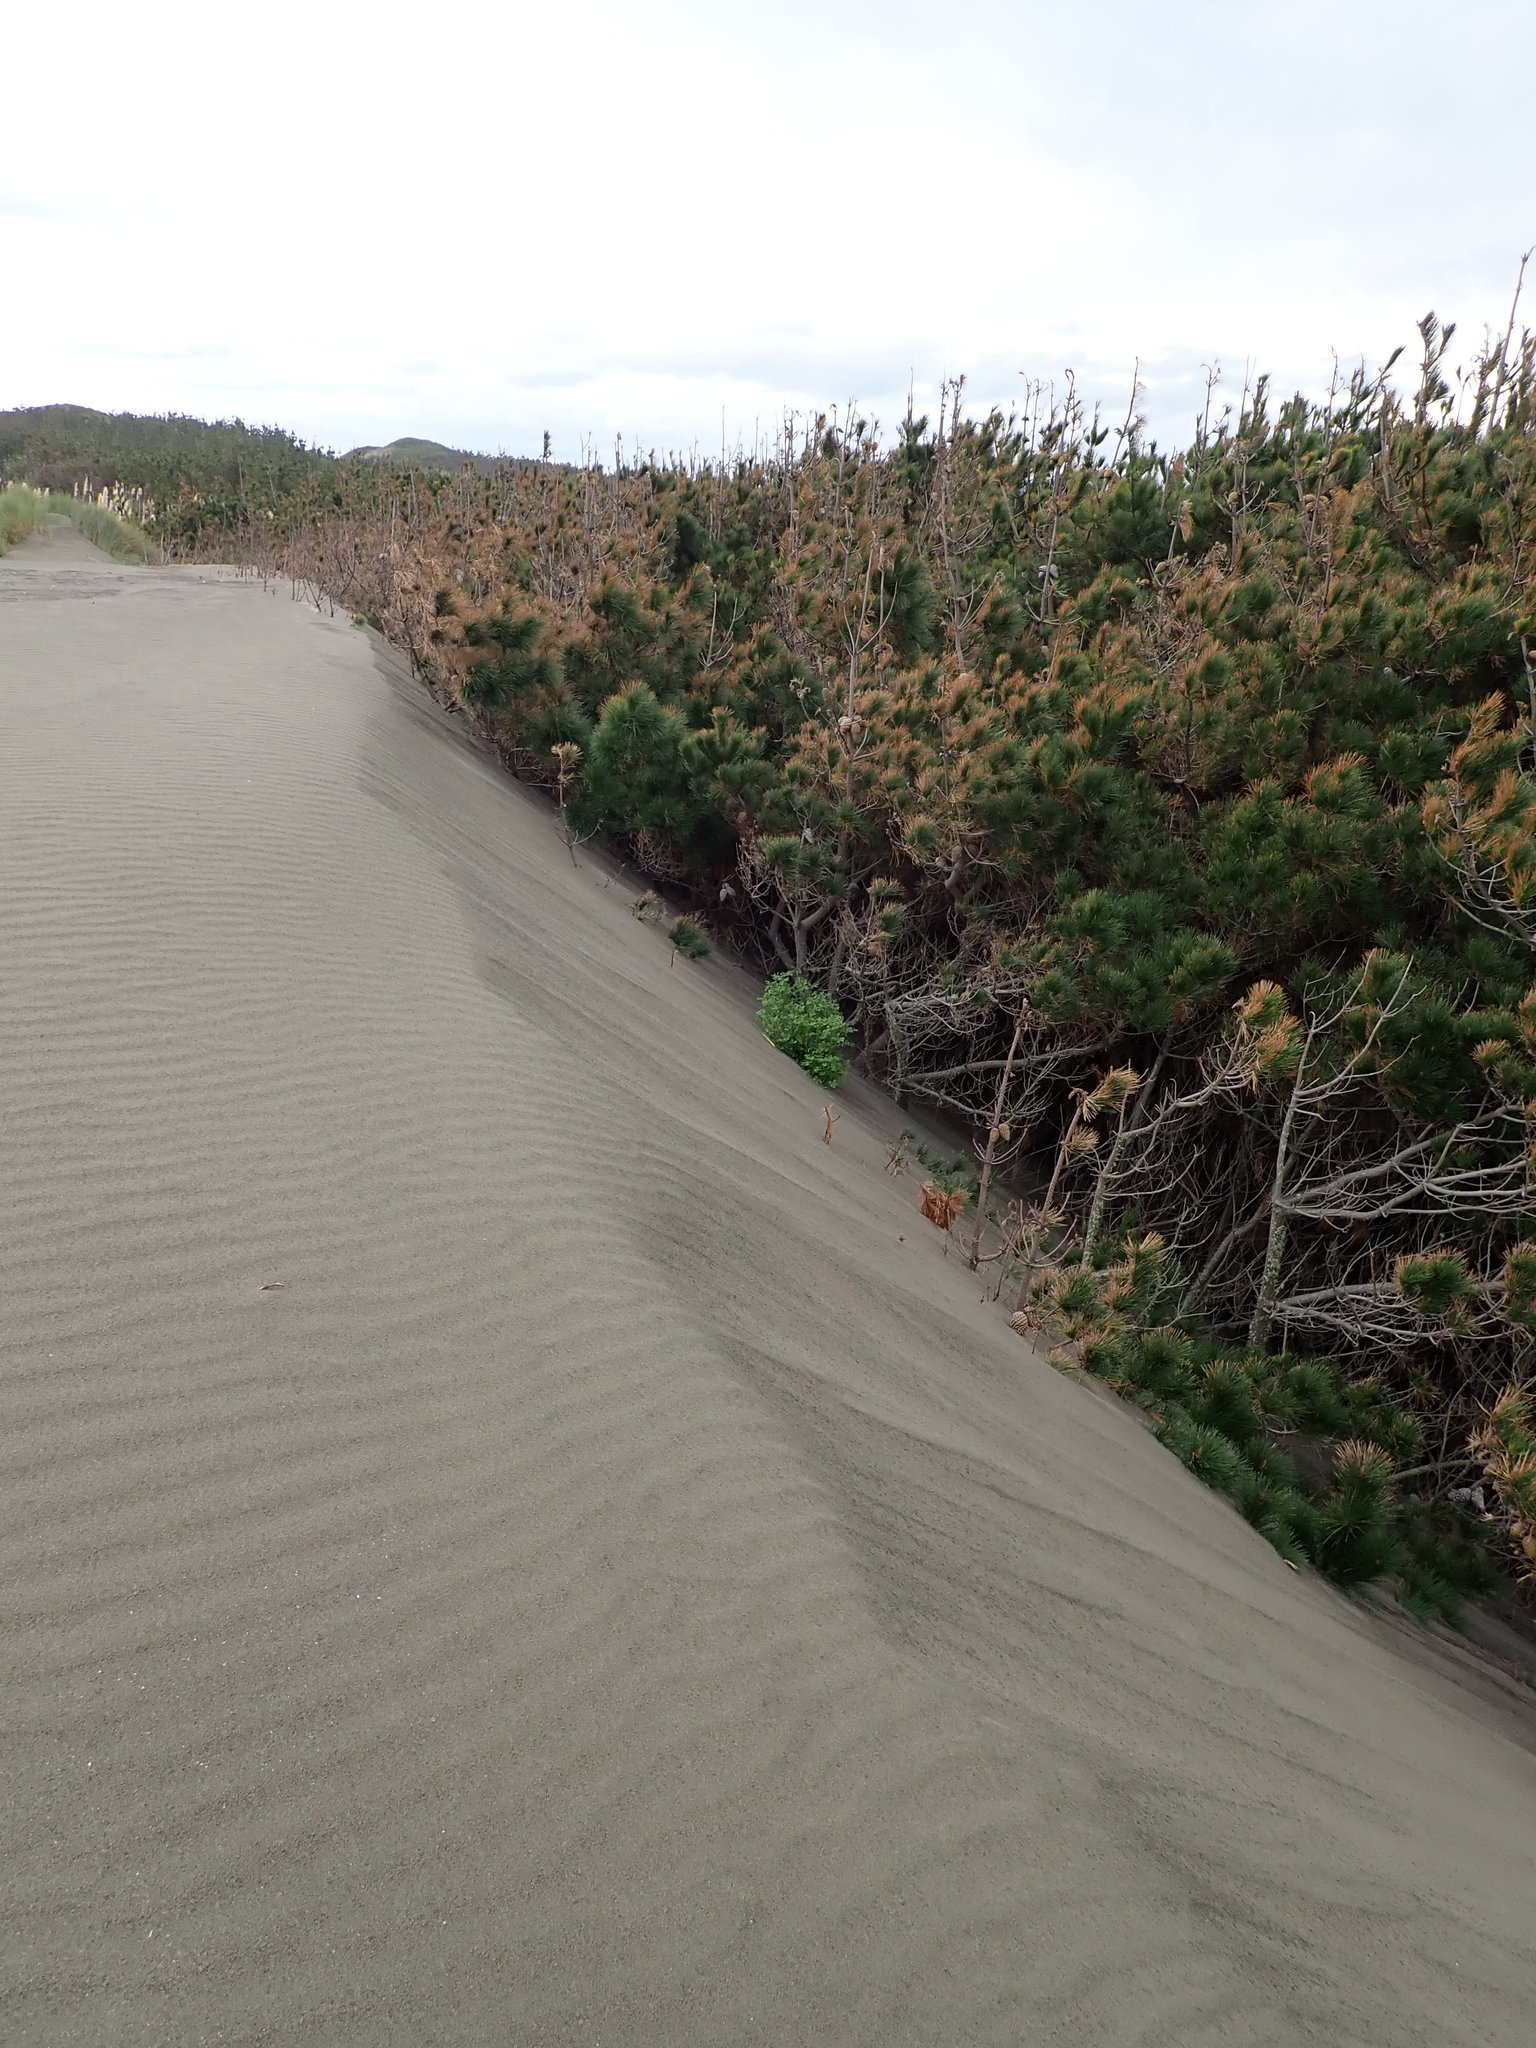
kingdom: Plantae
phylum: Tracheophyta
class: Pinopsida
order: Pinales
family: Pinaceae
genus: Pinus
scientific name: Pinus radiata
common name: Monterey pine
